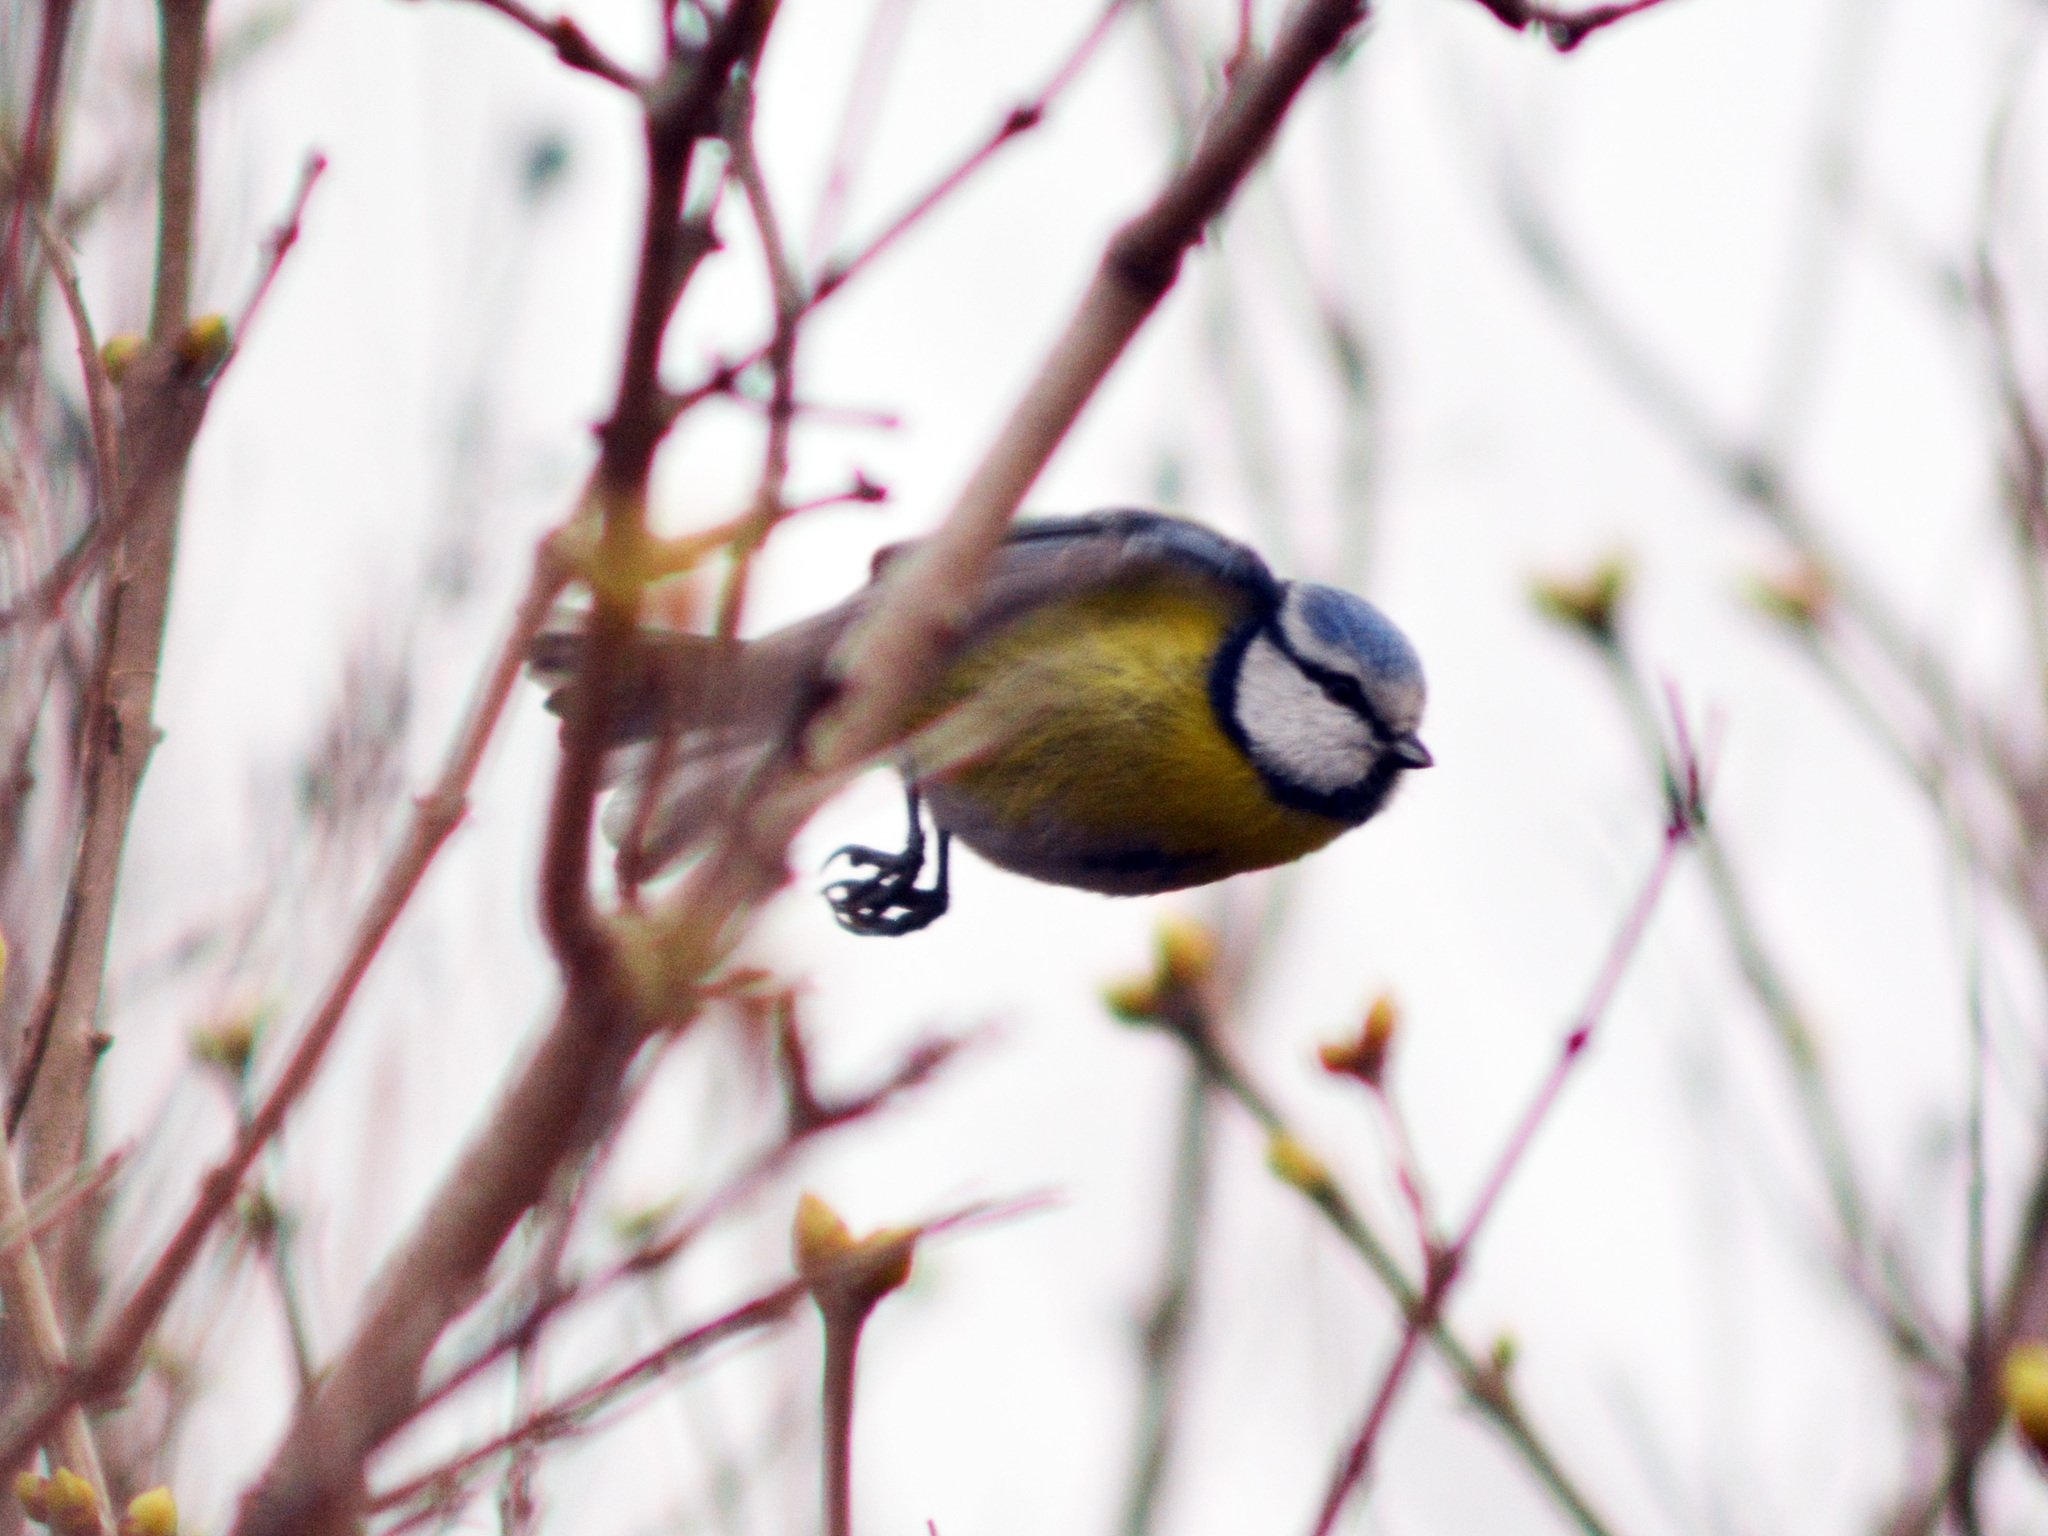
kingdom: Animalia
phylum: Chordata
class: Aves
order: Passeriformes
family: Paridae
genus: Cyanistes
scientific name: Cyanistes caeruleus
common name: Eurasian blue tit
